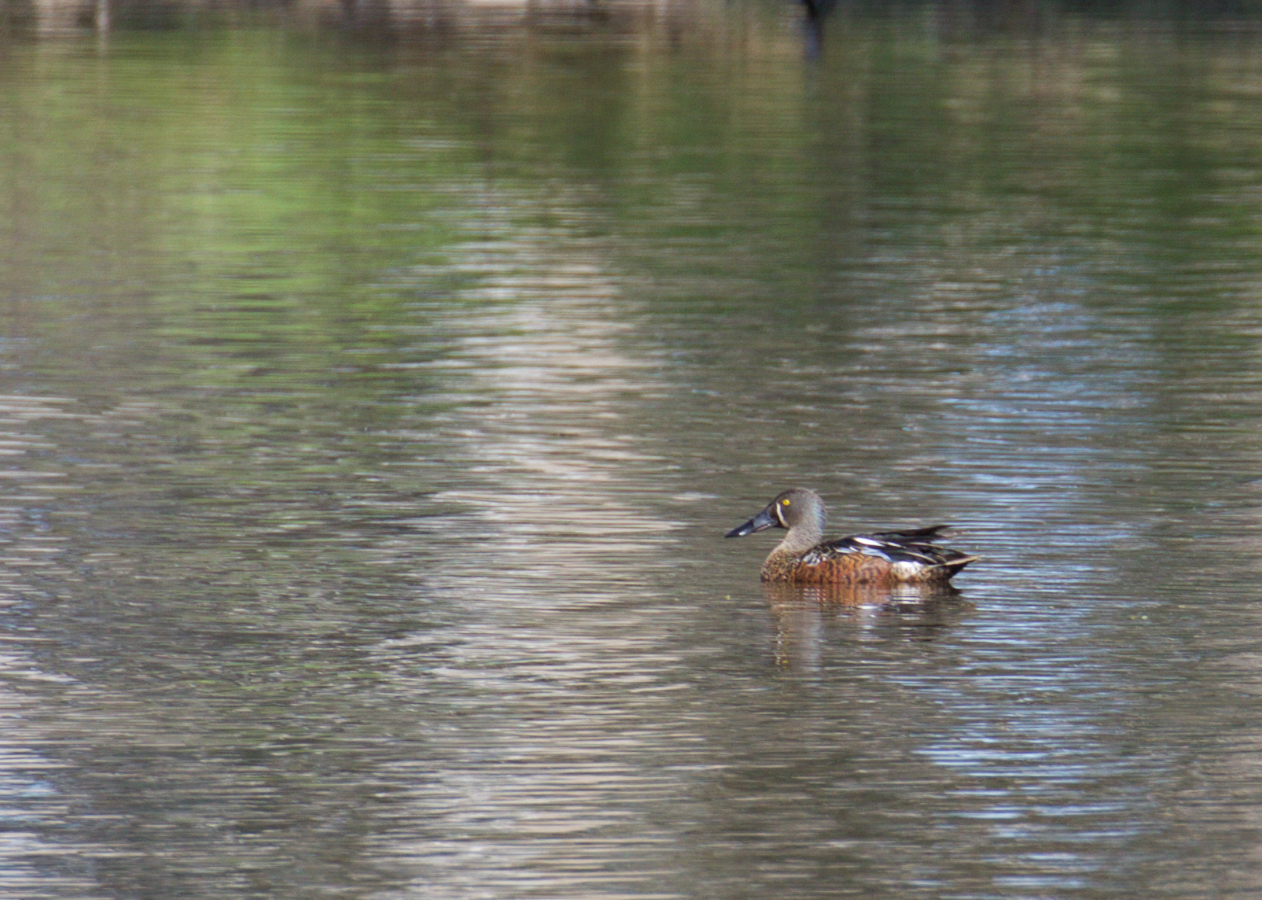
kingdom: Animalia
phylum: Chordata
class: Aves
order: Anseriformes
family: Anatidae
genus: Spatula
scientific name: Spatula rhynchotis
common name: Australian shoveler
